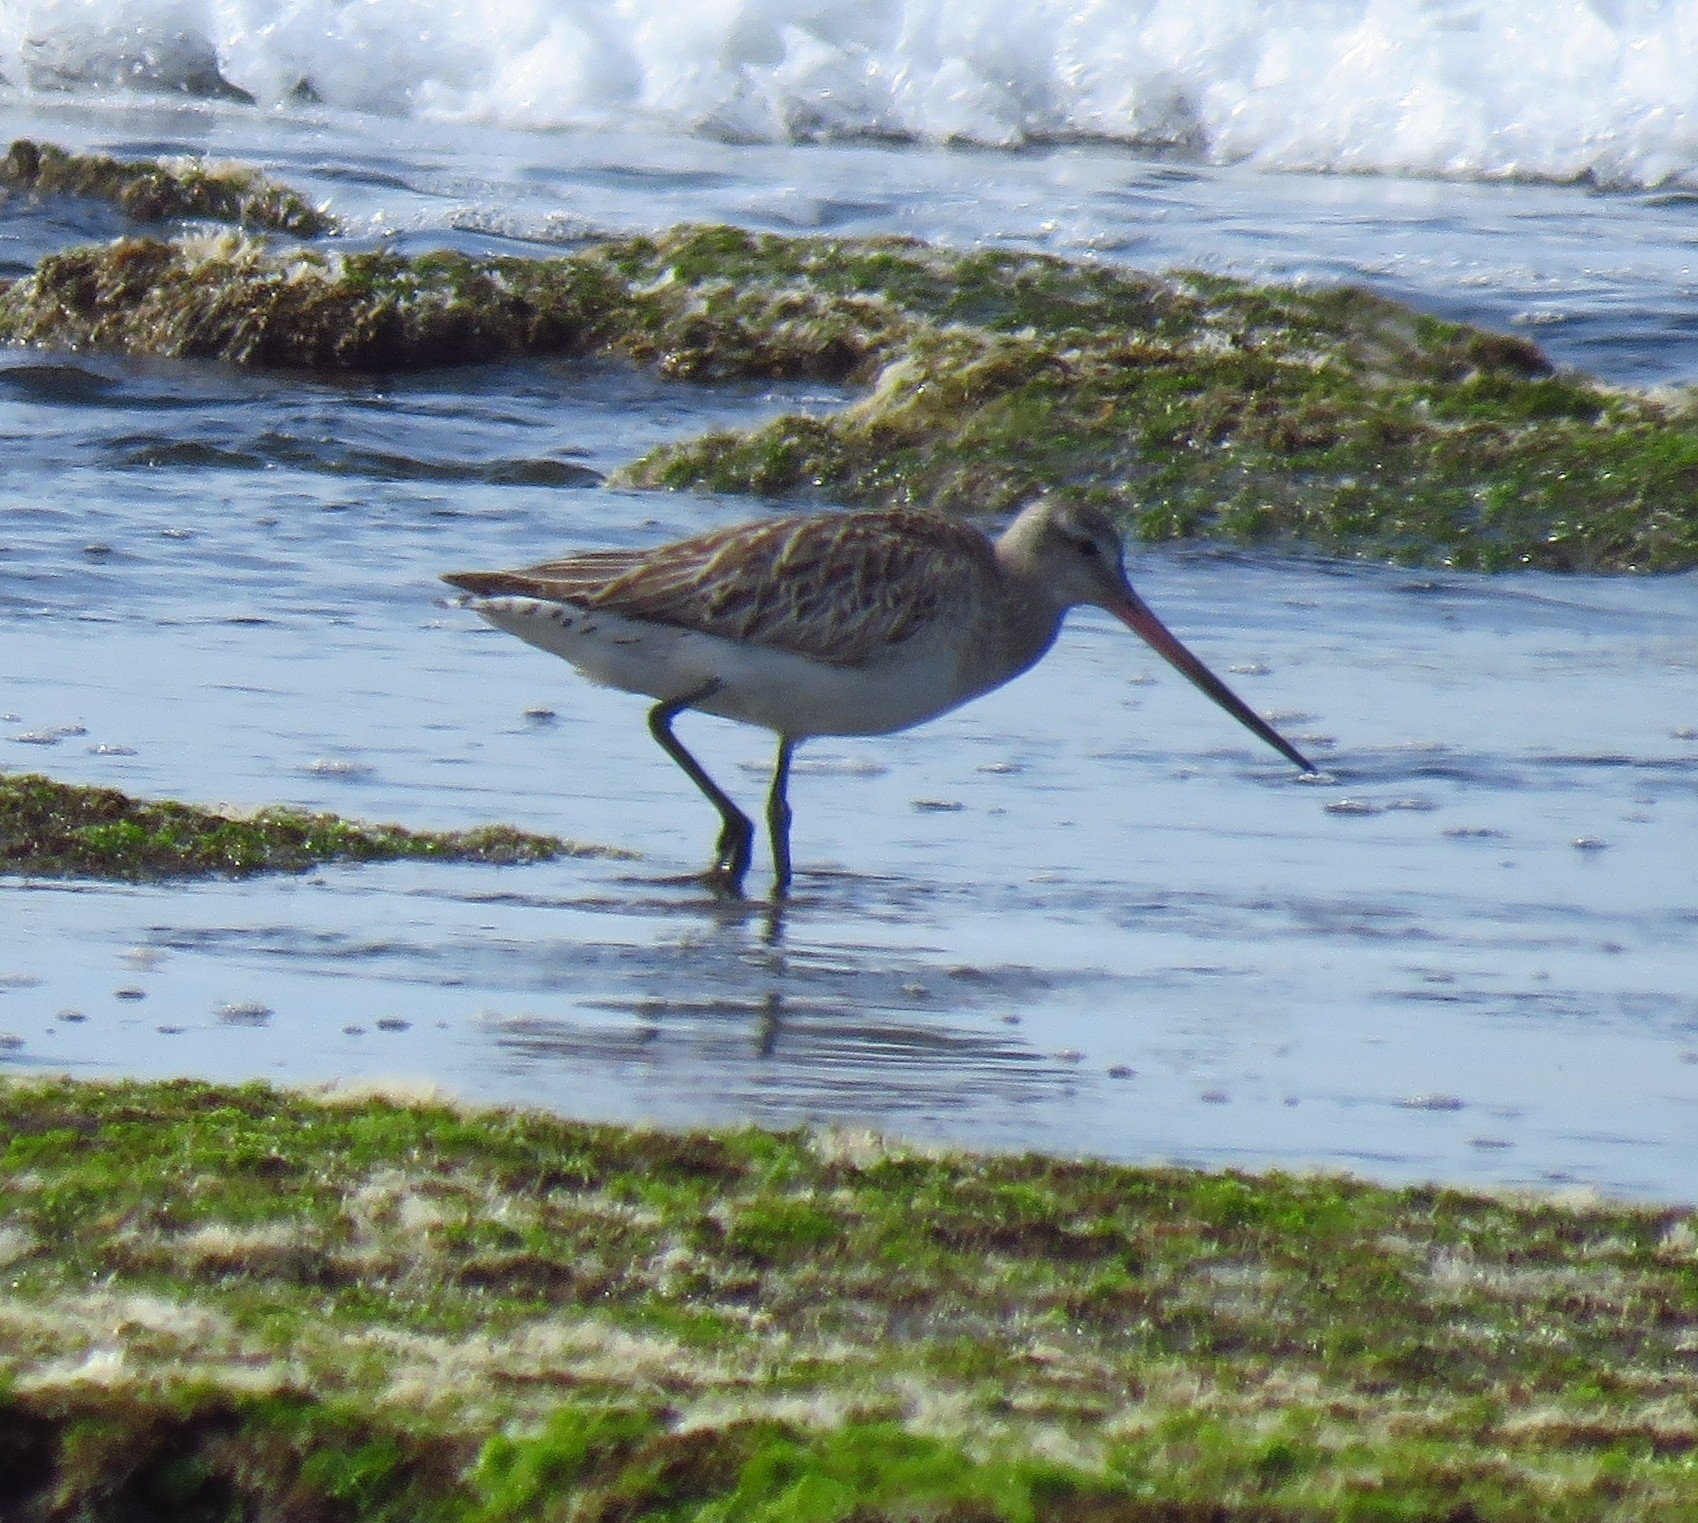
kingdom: Animalia
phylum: Chordata
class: Aves
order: Charadriiformes
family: Scolopacidae
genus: Limosa
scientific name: Limosa lapponica
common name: Bar-tailed godwit
